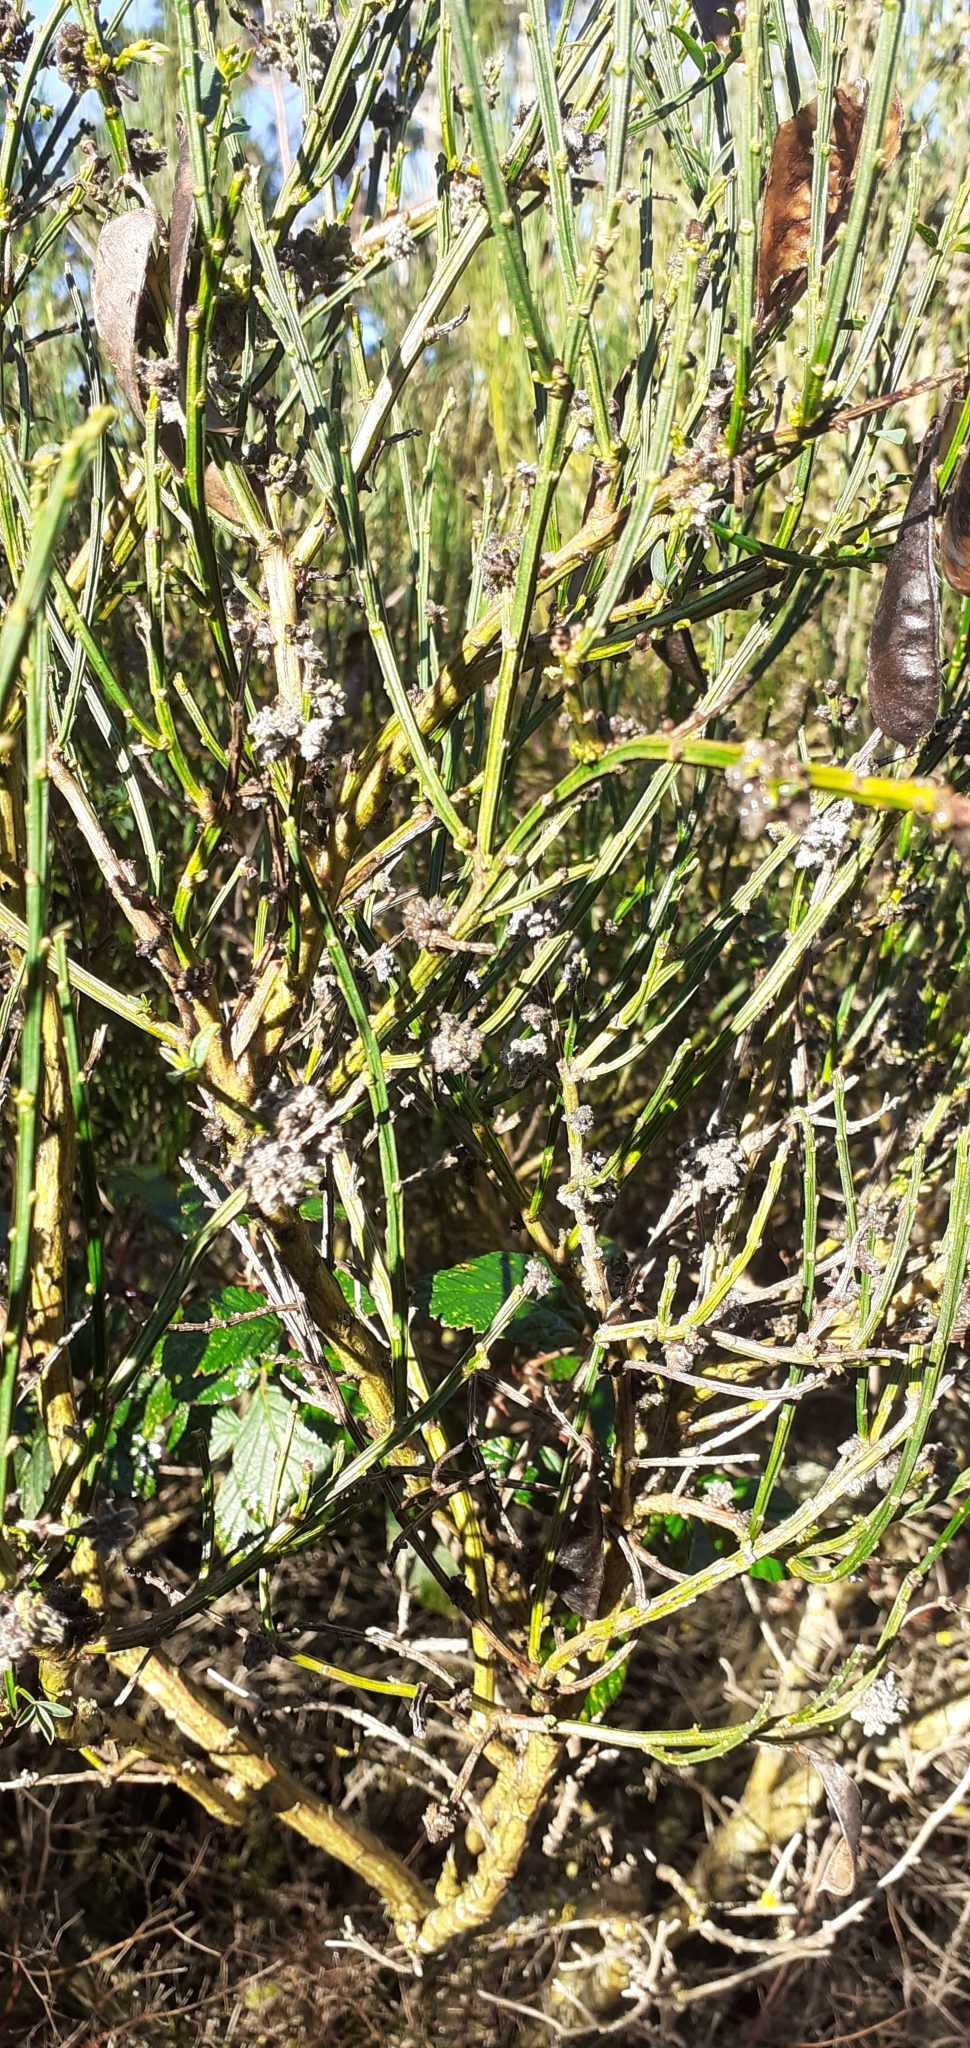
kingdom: Animalia
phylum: Arthropoda
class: Arachnida
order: Trombidiformes
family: Eriophyidae
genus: Aceria
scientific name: Aceria genistae
